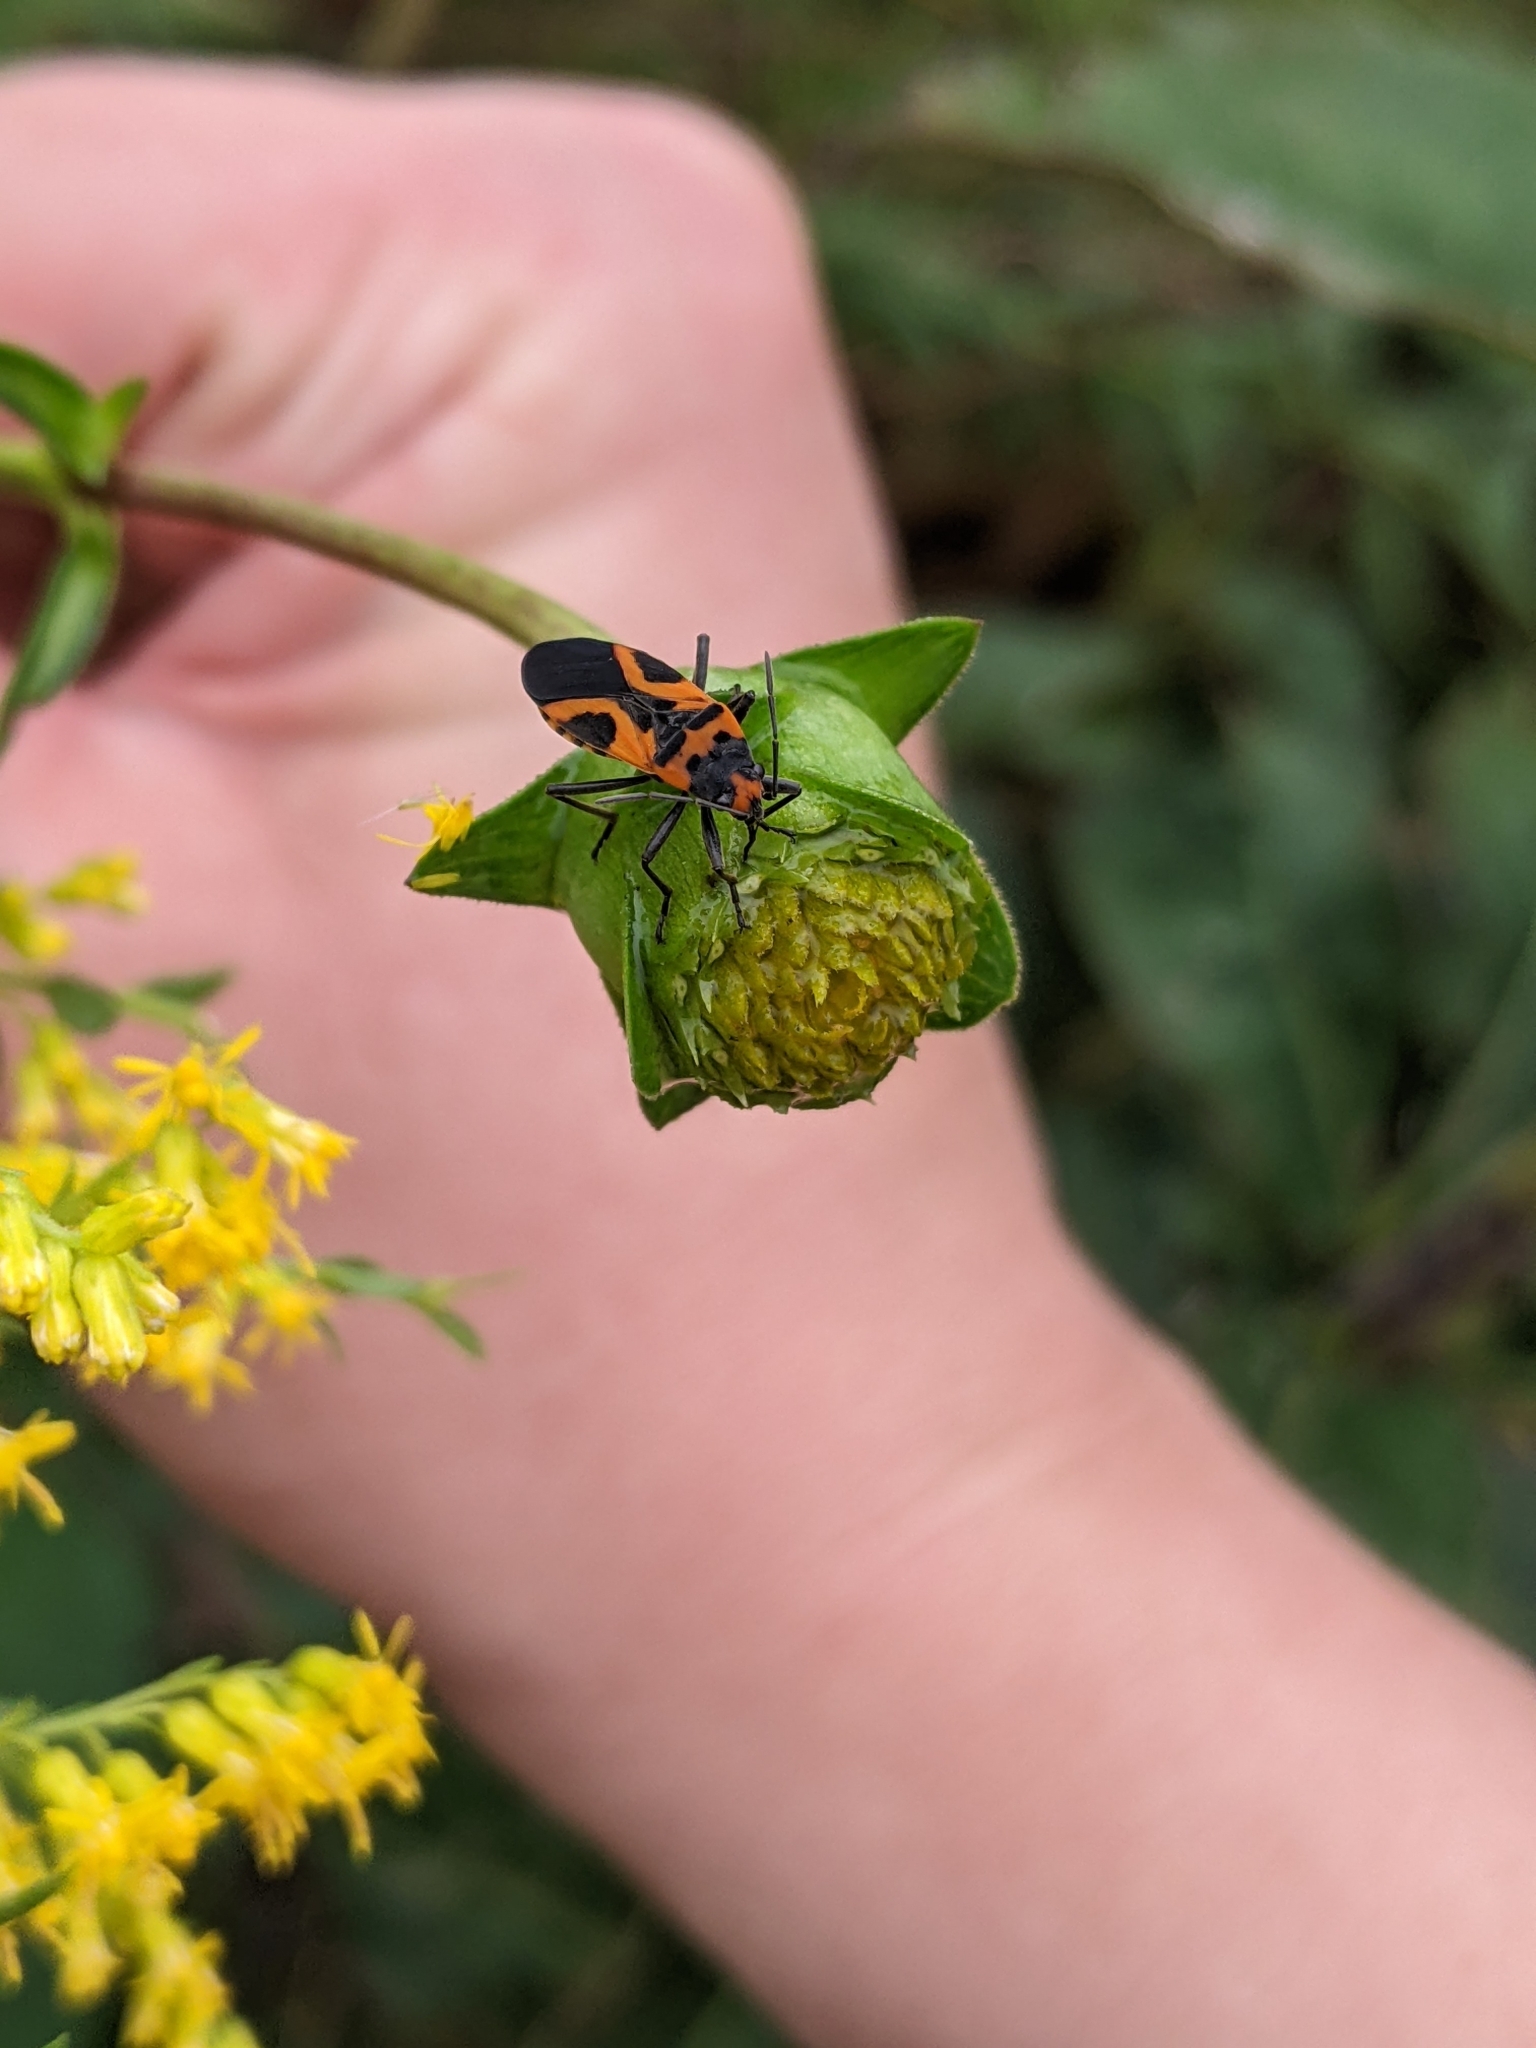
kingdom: Animalia
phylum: Arthropoda
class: Insecta
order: Hemiptera
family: Lygaeidae
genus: Lygaeus
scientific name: Lygaeus turcicus
